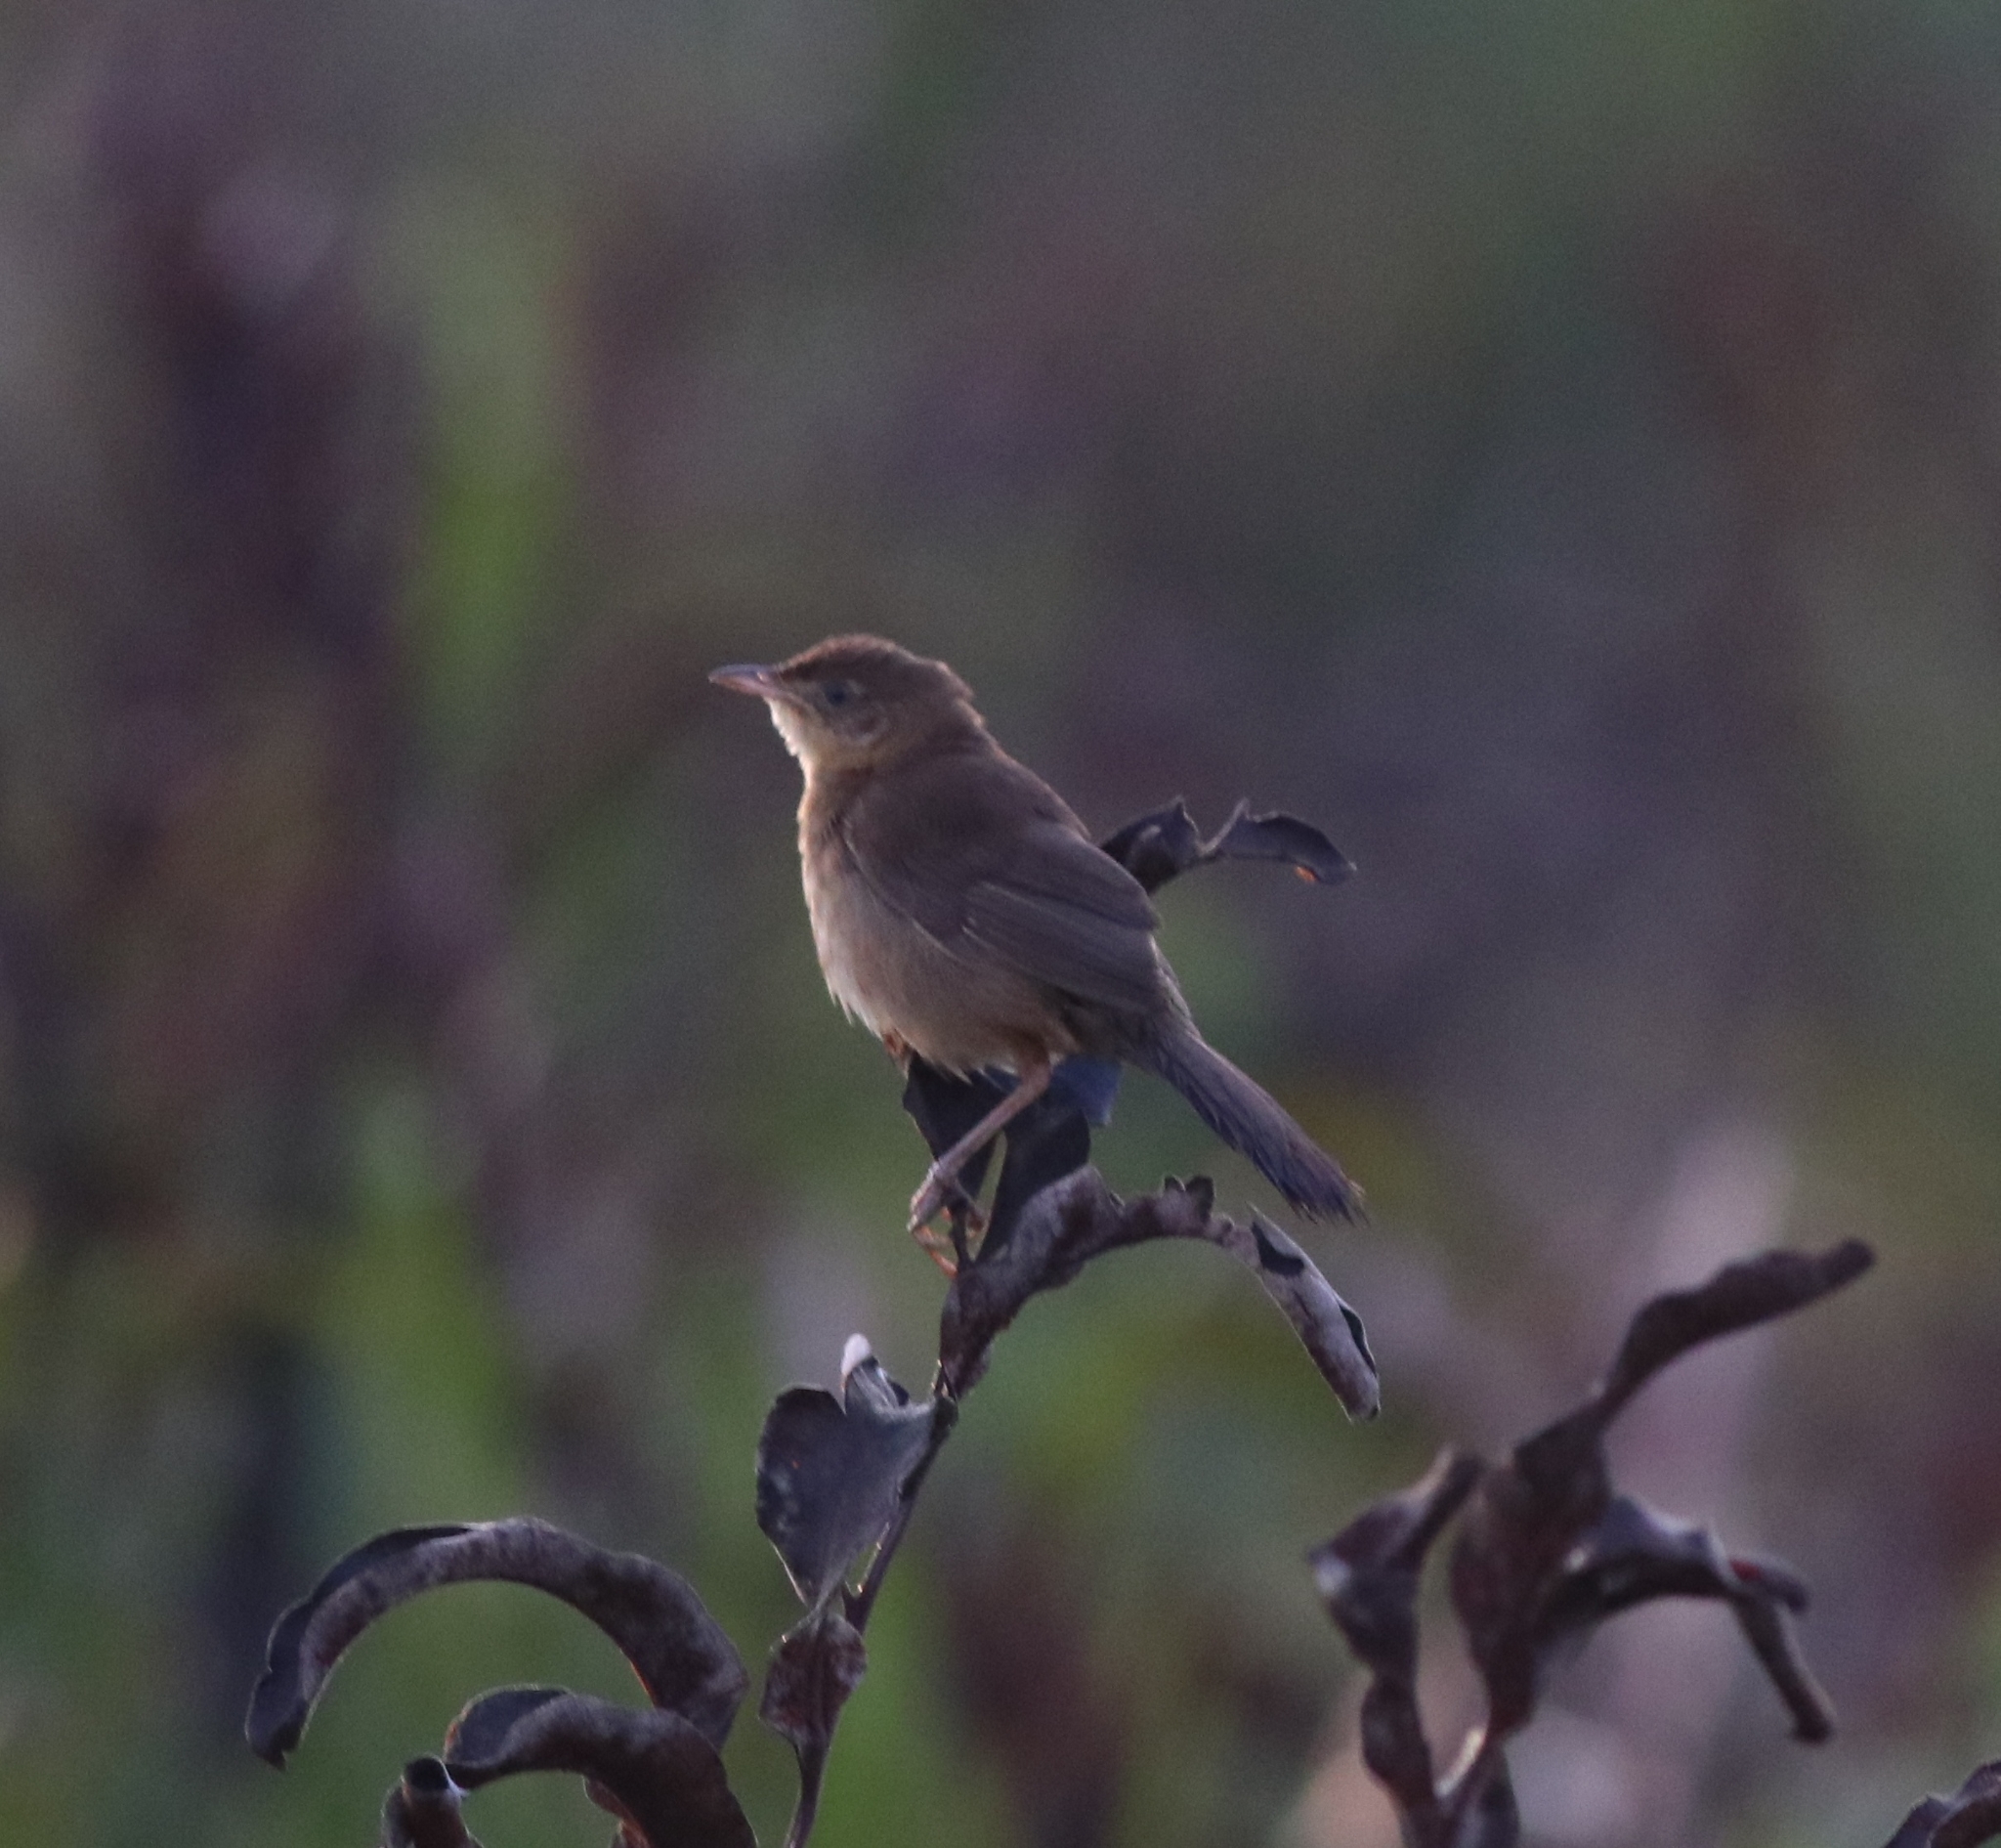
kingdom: Animalia
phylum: Chordata
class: Aves
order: Passeriformes
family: Locustellidae
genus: Schoenicola
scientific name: Schoenicola platyurus
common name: Broad-tailed grassbird
